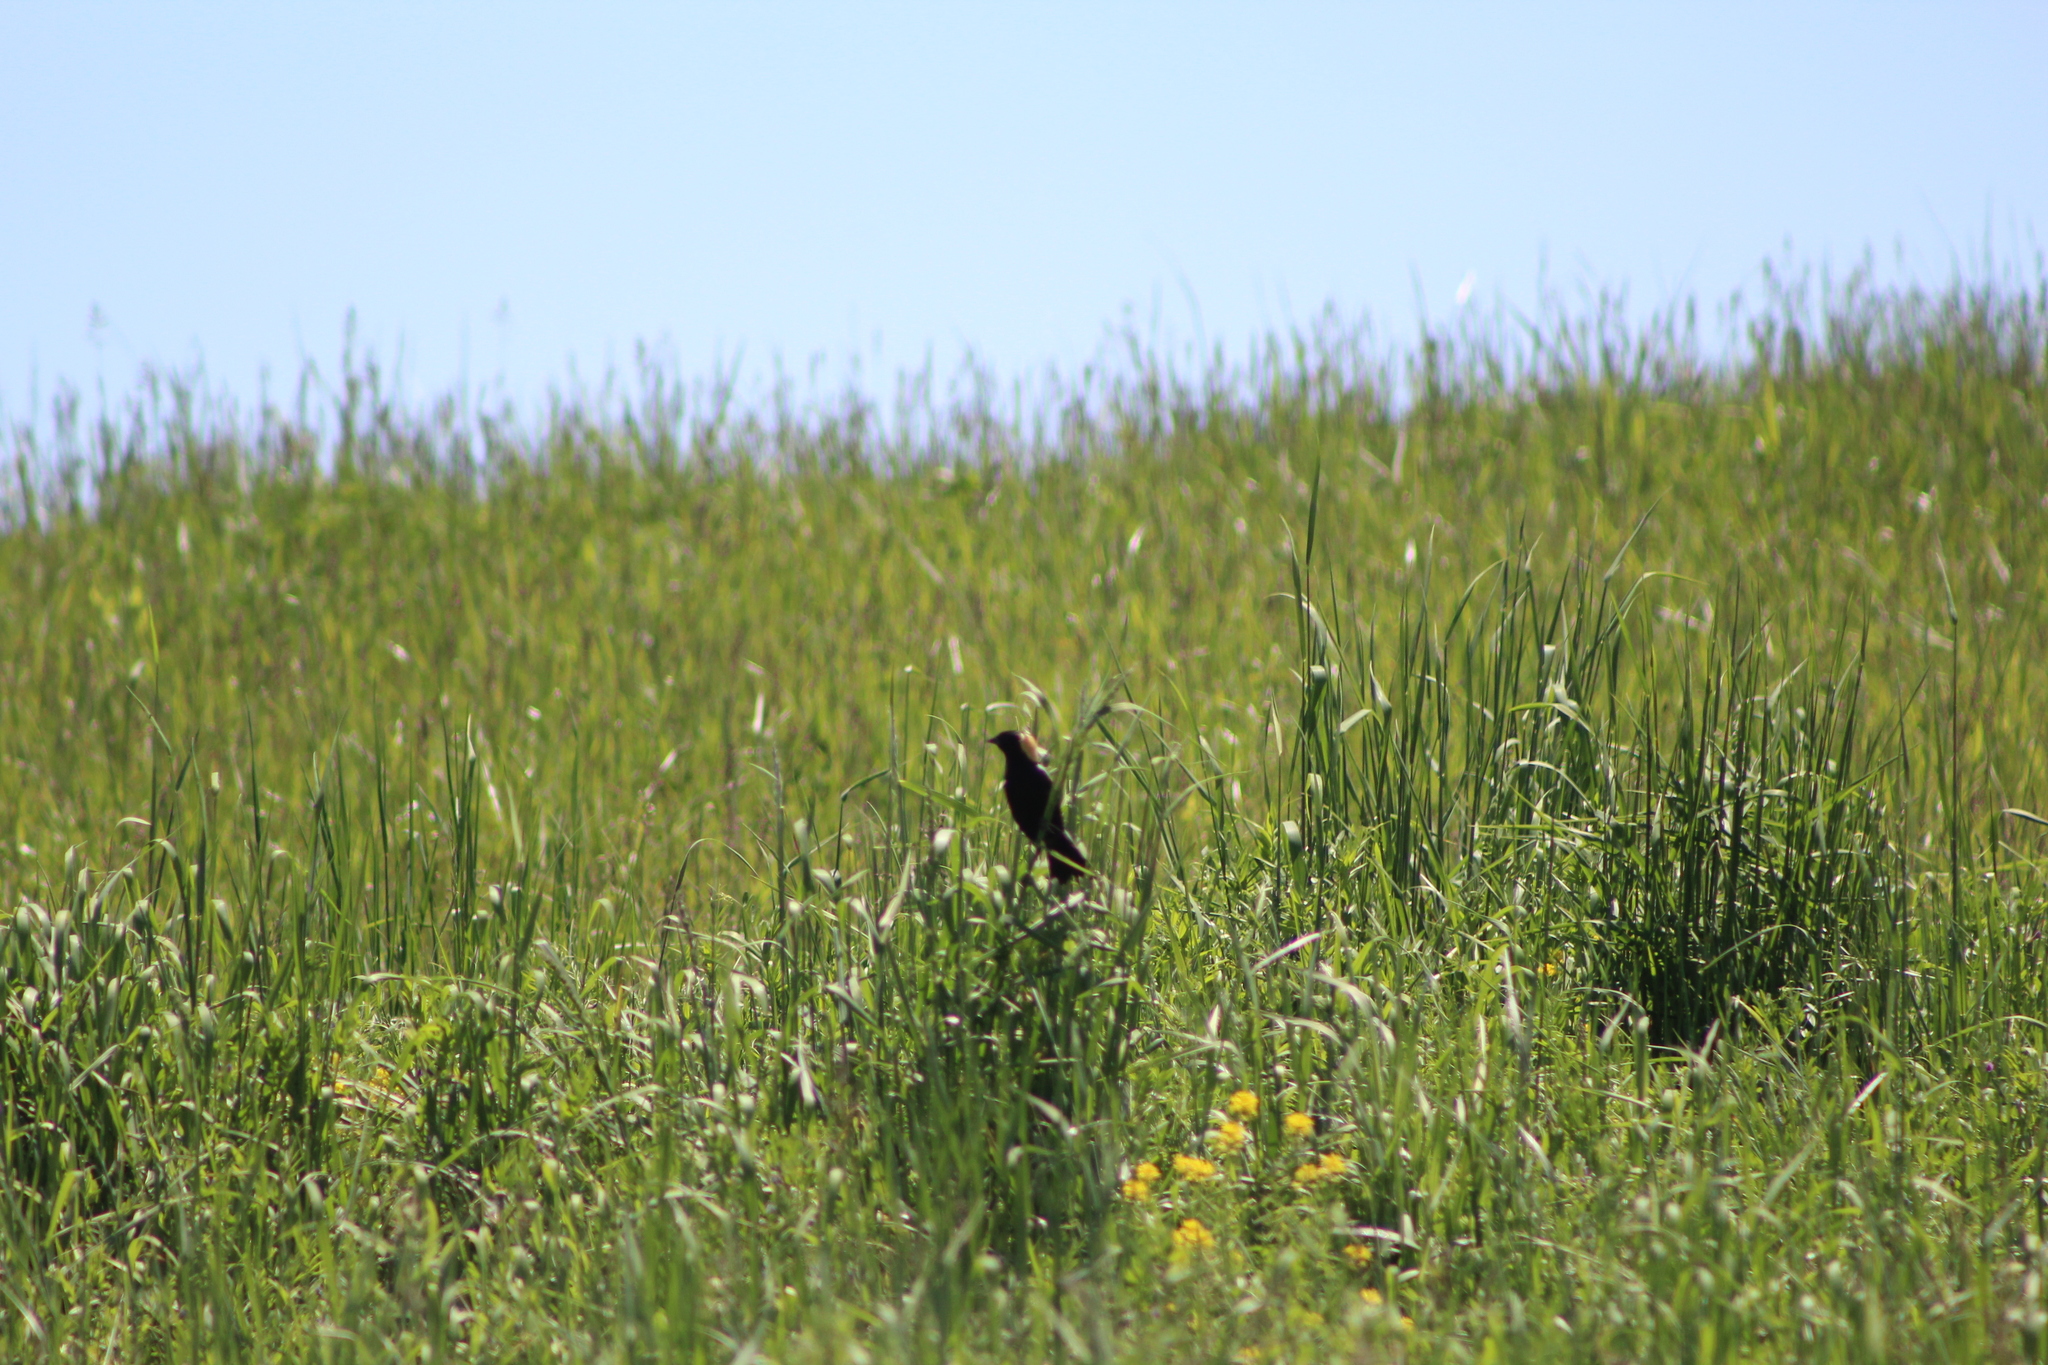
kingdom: Animalia
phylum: Chordata
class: Aves
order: Passeriformes
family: Icteridae
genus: Dolichonyx
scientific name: Dolichonyx oryzivorus
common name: Bobolink
